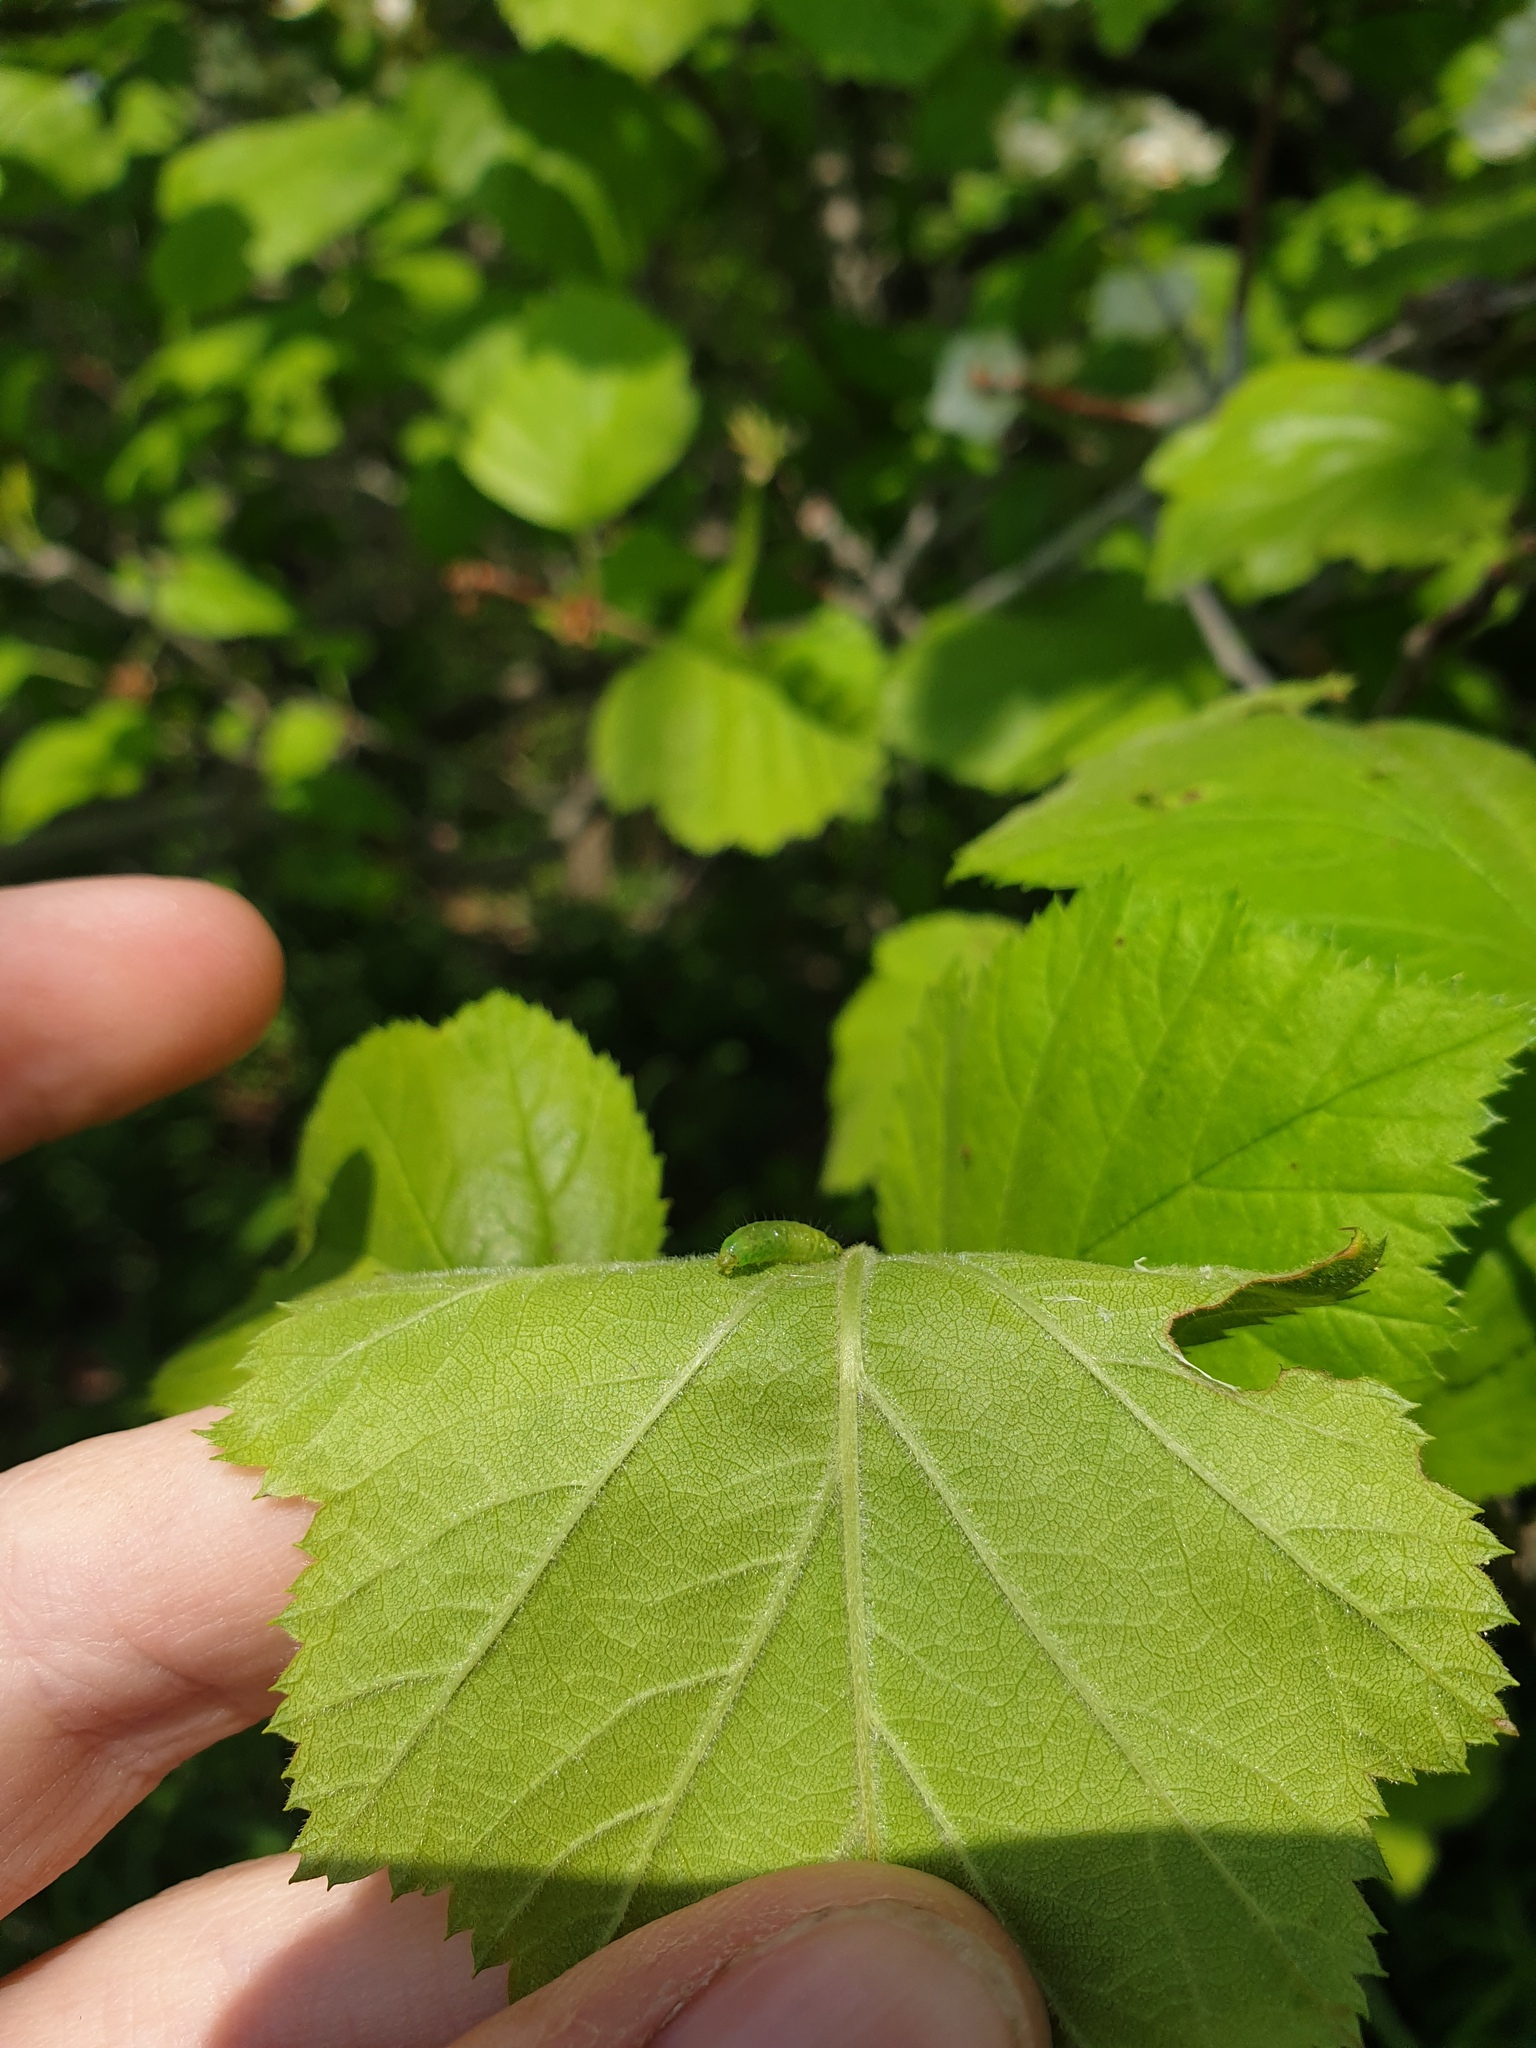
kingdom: Plantae
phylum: Tracheophyta
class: Magnoliopsida
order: Rosales
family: Rosaceae
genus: Crataegus
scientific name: Crataegus mollis
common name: Downy hawthorn
